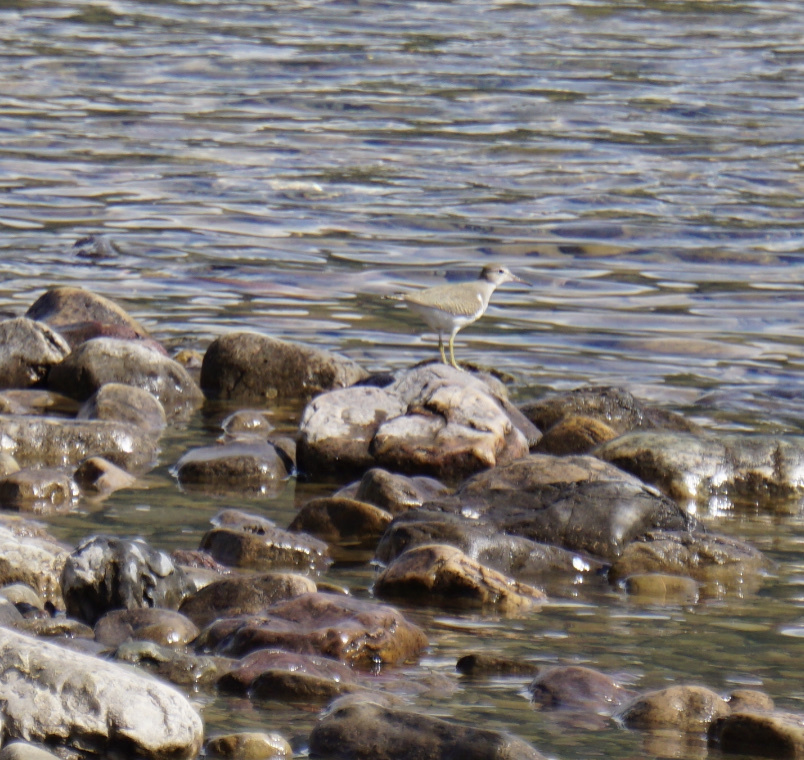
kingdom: Animalia
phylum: Chordata
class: Aves
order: Charadriiformes
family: Scolopacidae
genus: Actitis
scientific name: Actitis macularius
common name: Spotted sandpiper
